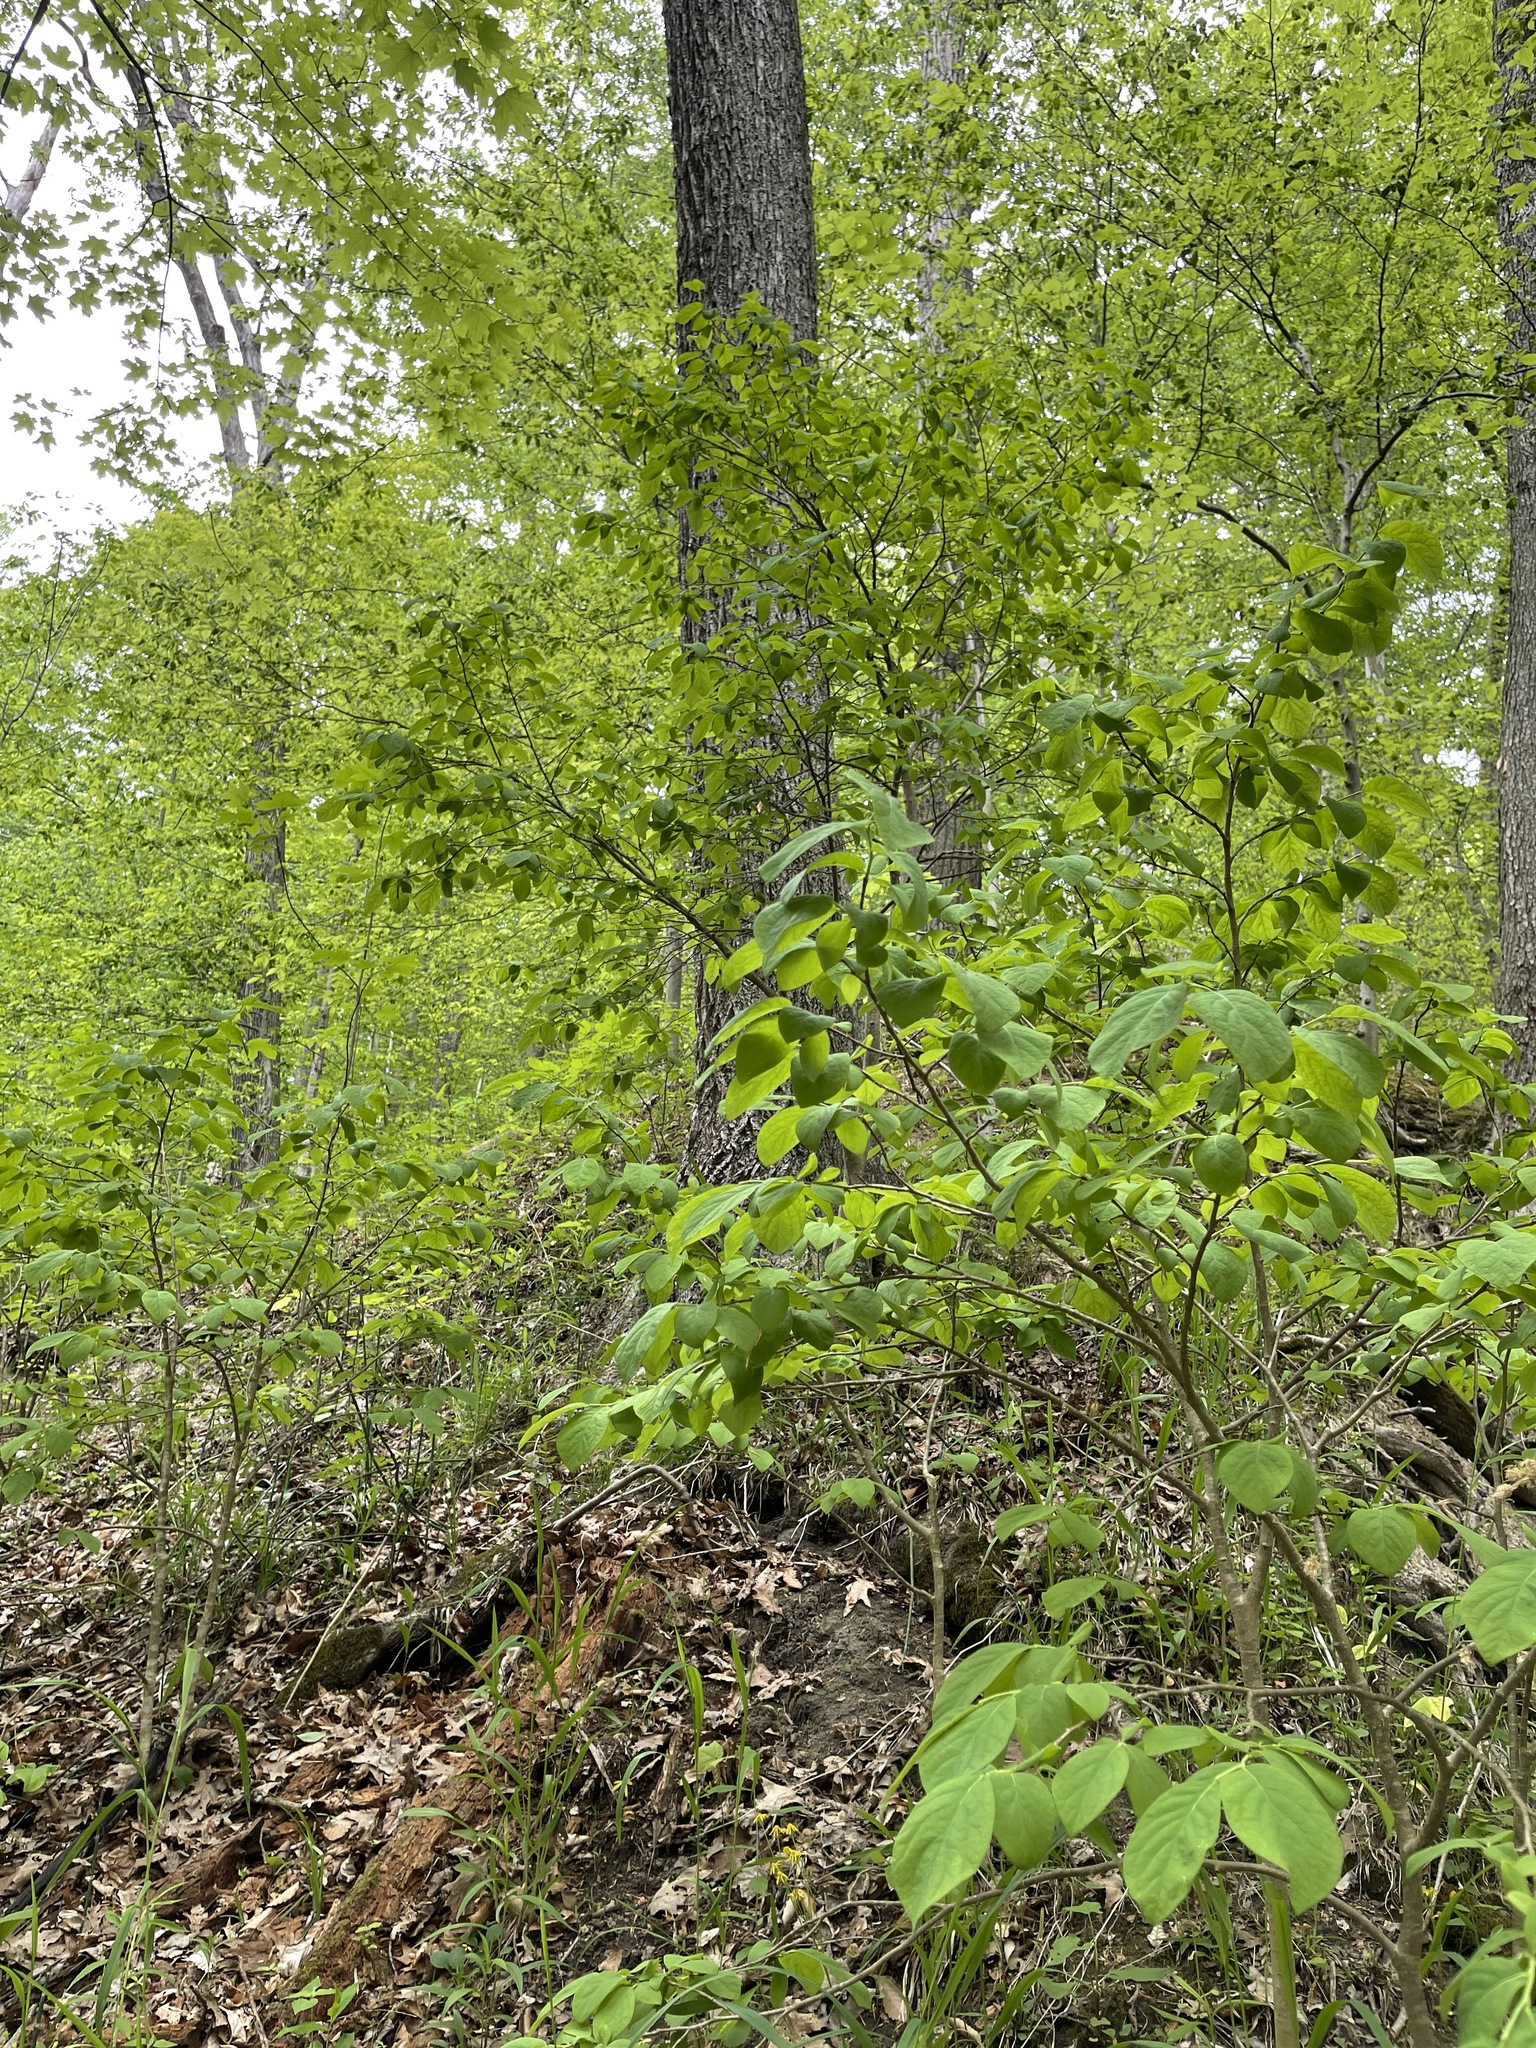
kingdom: Plantae
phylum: Tracheophyta
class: Magnoliopsida
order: Malvales
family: Thymelaeaceae
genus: Dirca
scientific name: Dirca palustris
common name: Leatherwood
